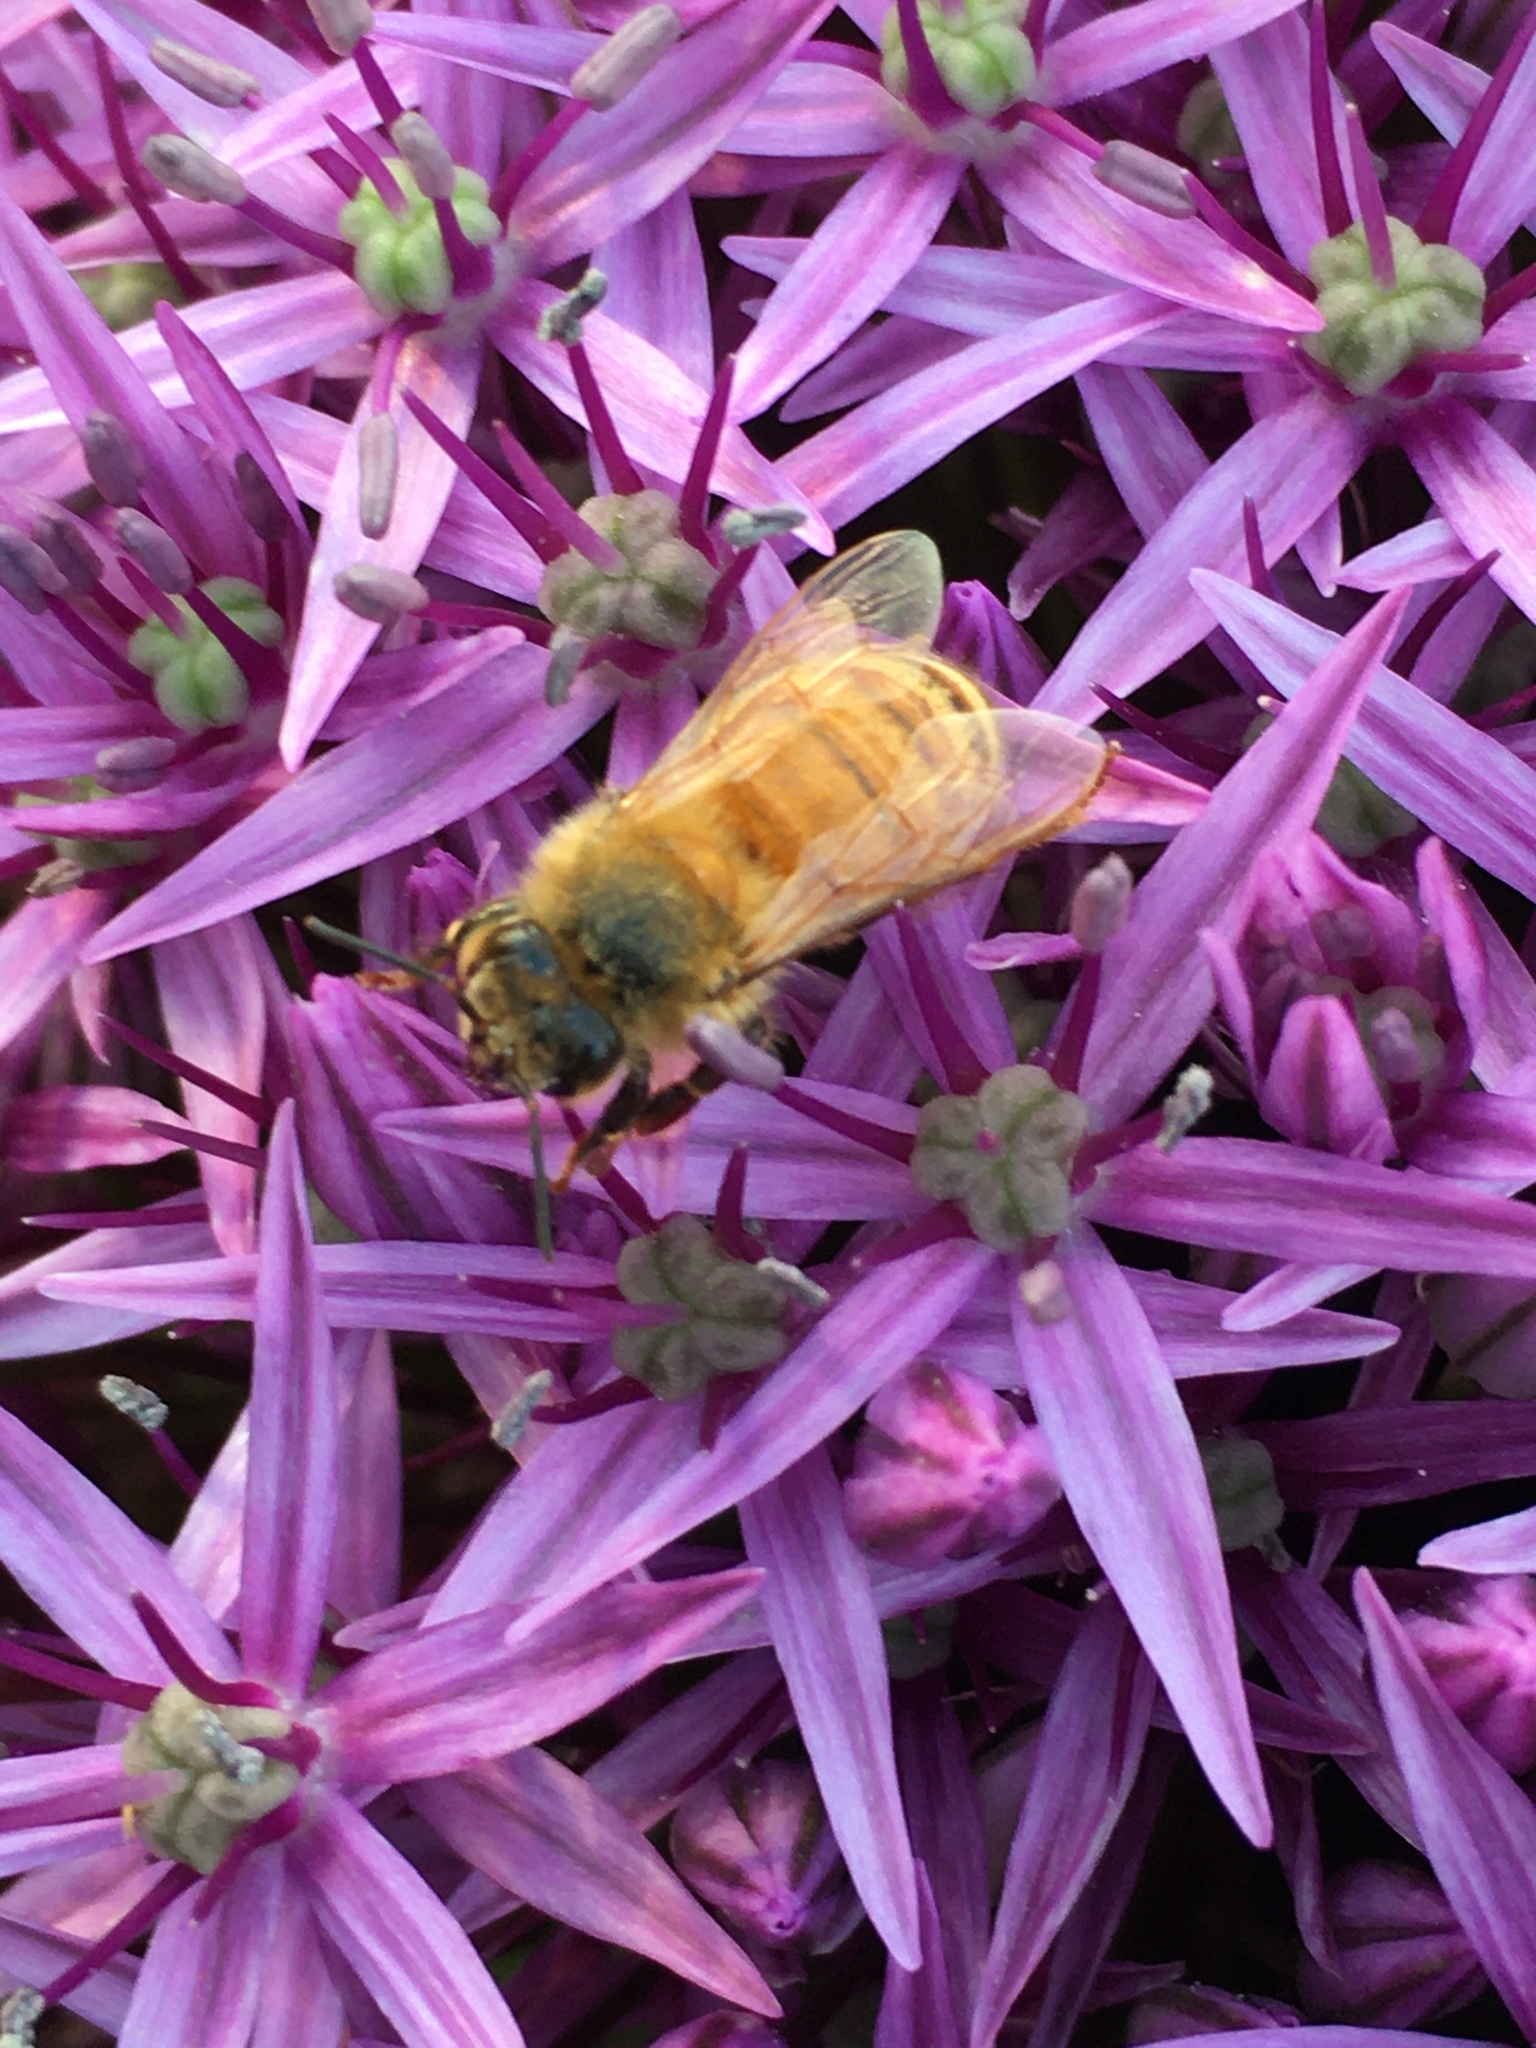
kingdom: Animalia
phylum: Arthropoda
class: Insecta
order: Hymenoptera
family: Apidae
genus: Apis
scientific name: Apis mellifera
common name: Honey bee
